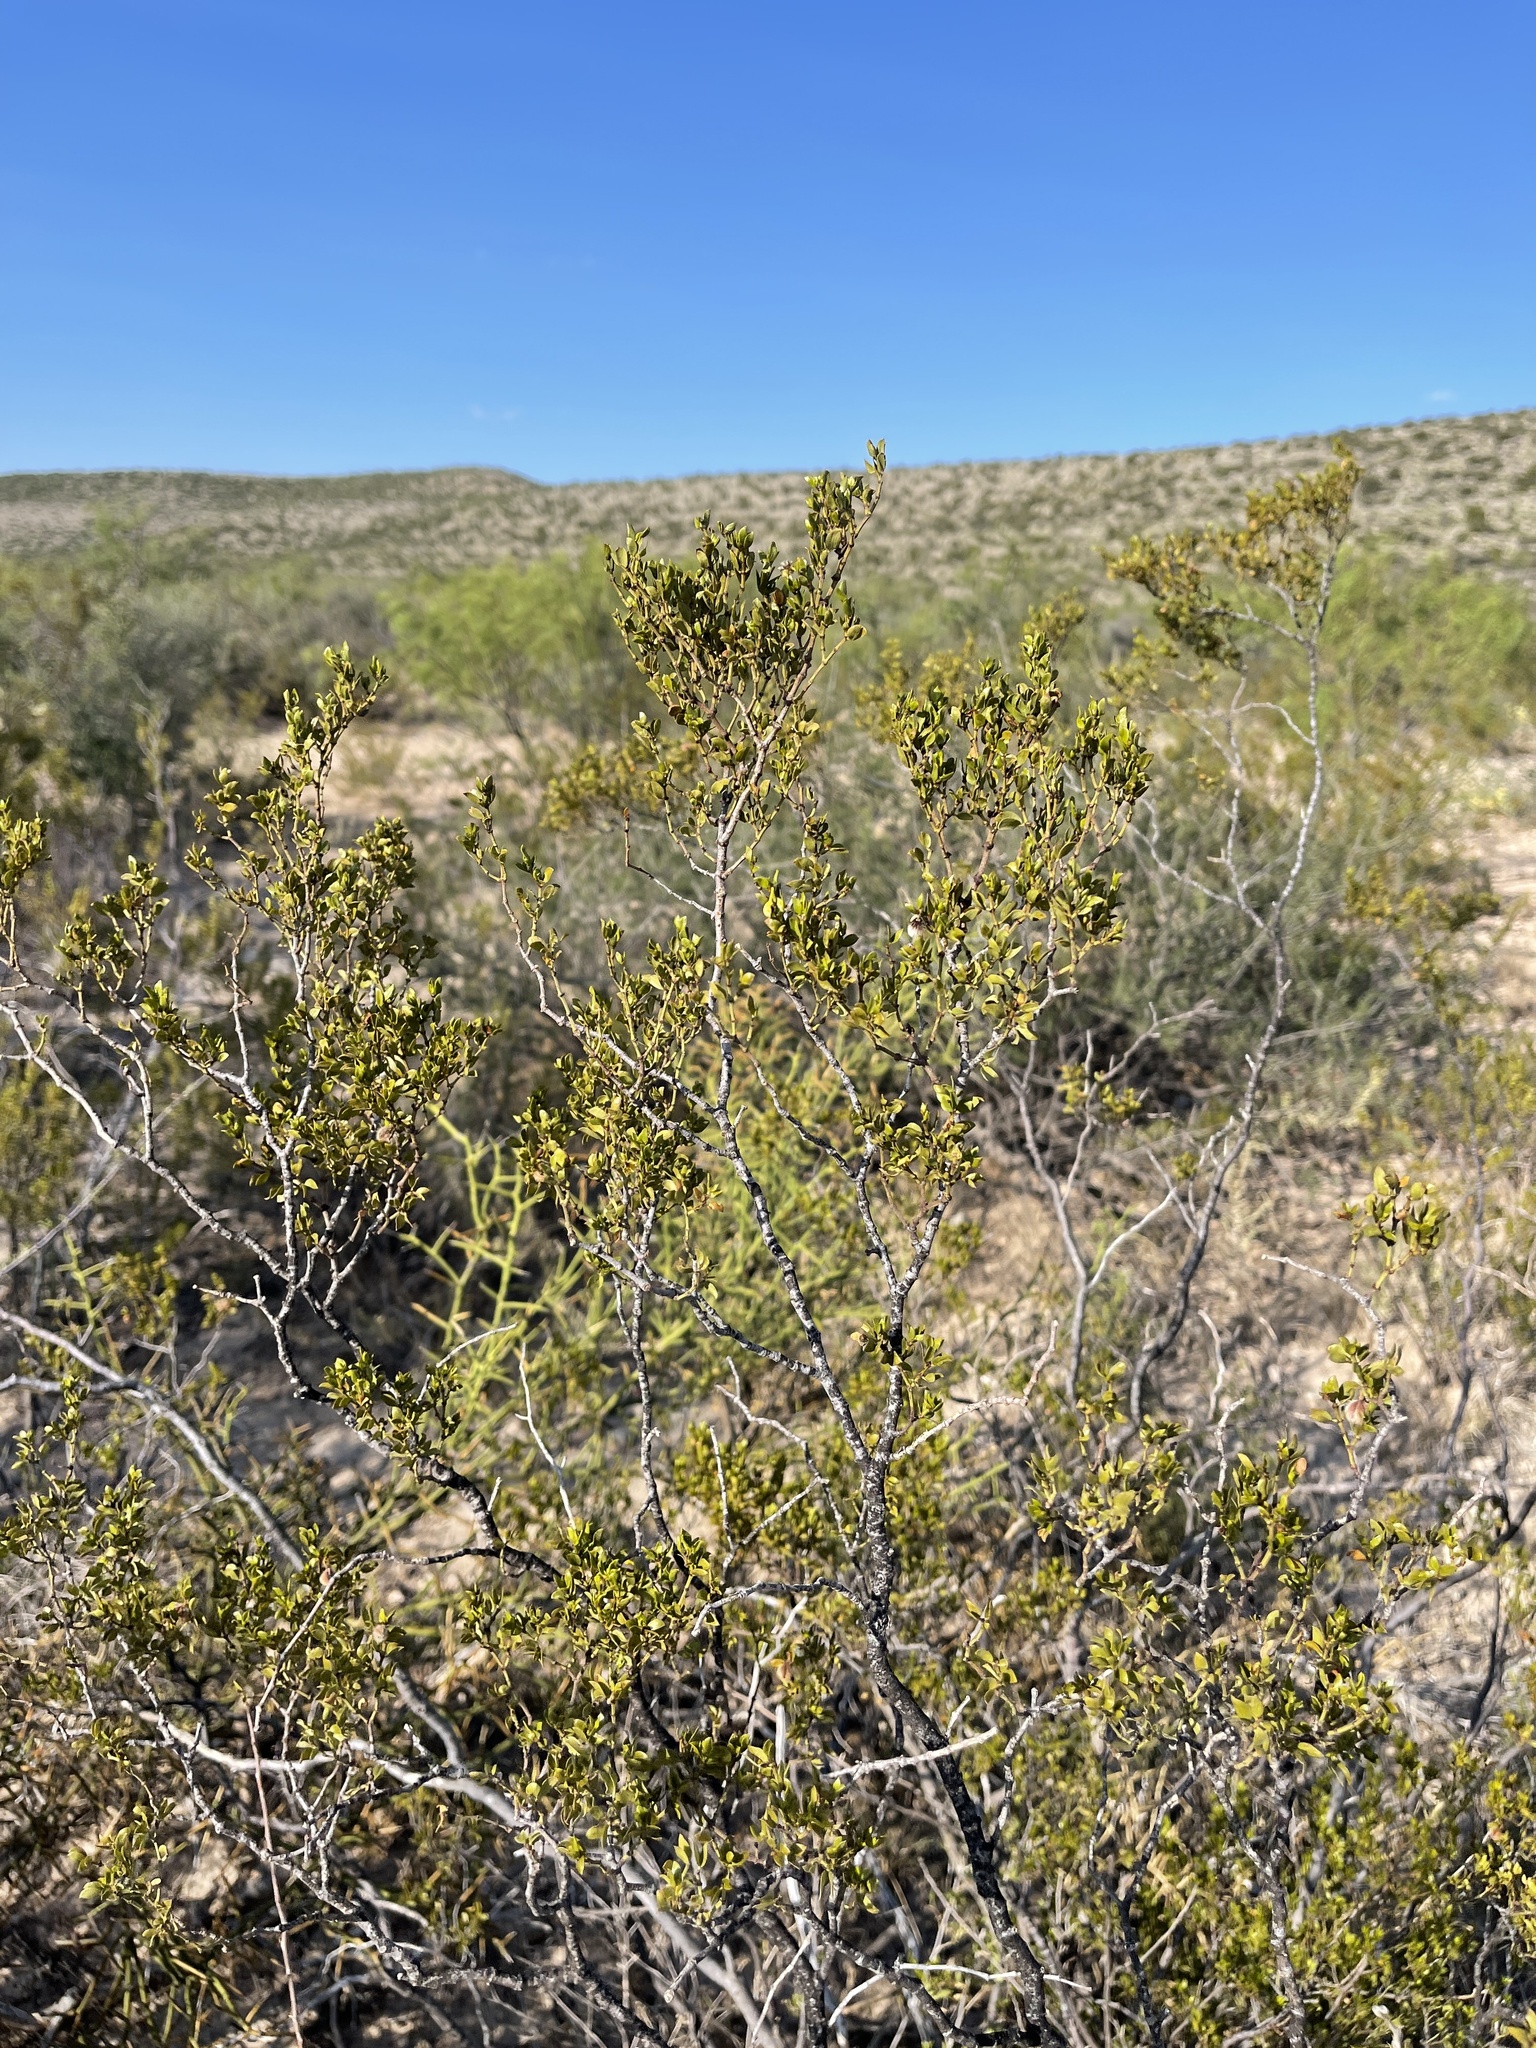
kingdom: Plantae
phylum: Tracheophyta
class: Magnoliopsida
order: Zygophyllales
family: Zygophyllaceae
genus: Larrea
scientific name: Larrea tridentata
